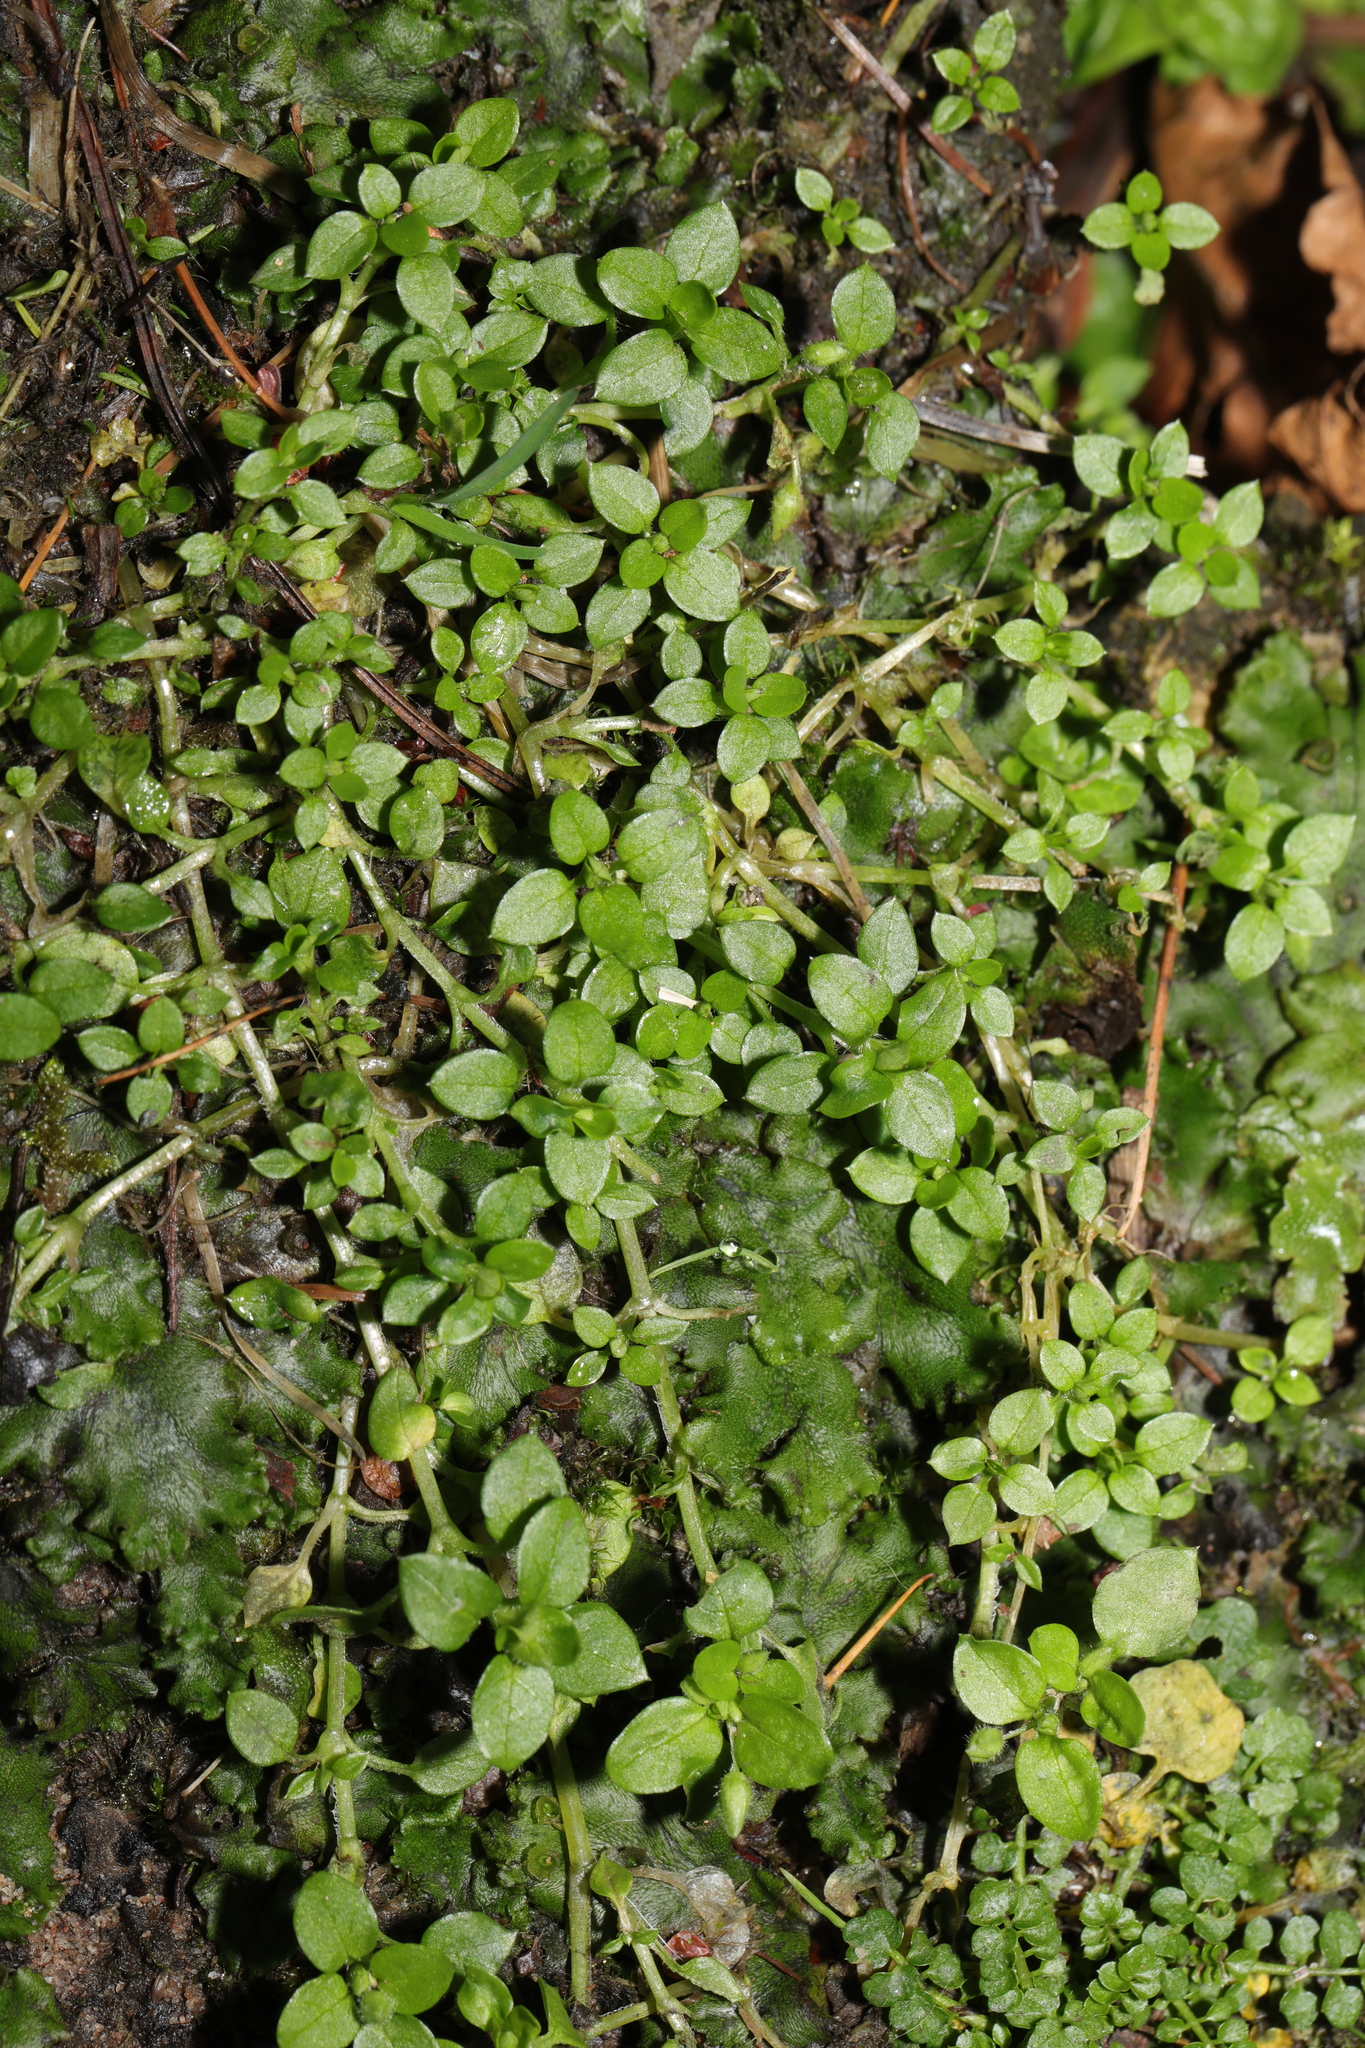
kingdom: Plantae
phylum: Tracheophyta
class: Magnoliopsida
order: Caryophyllales
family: Caryophyllaceae
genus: Stellaria
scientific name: Stellaria media
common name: Common chickweed
